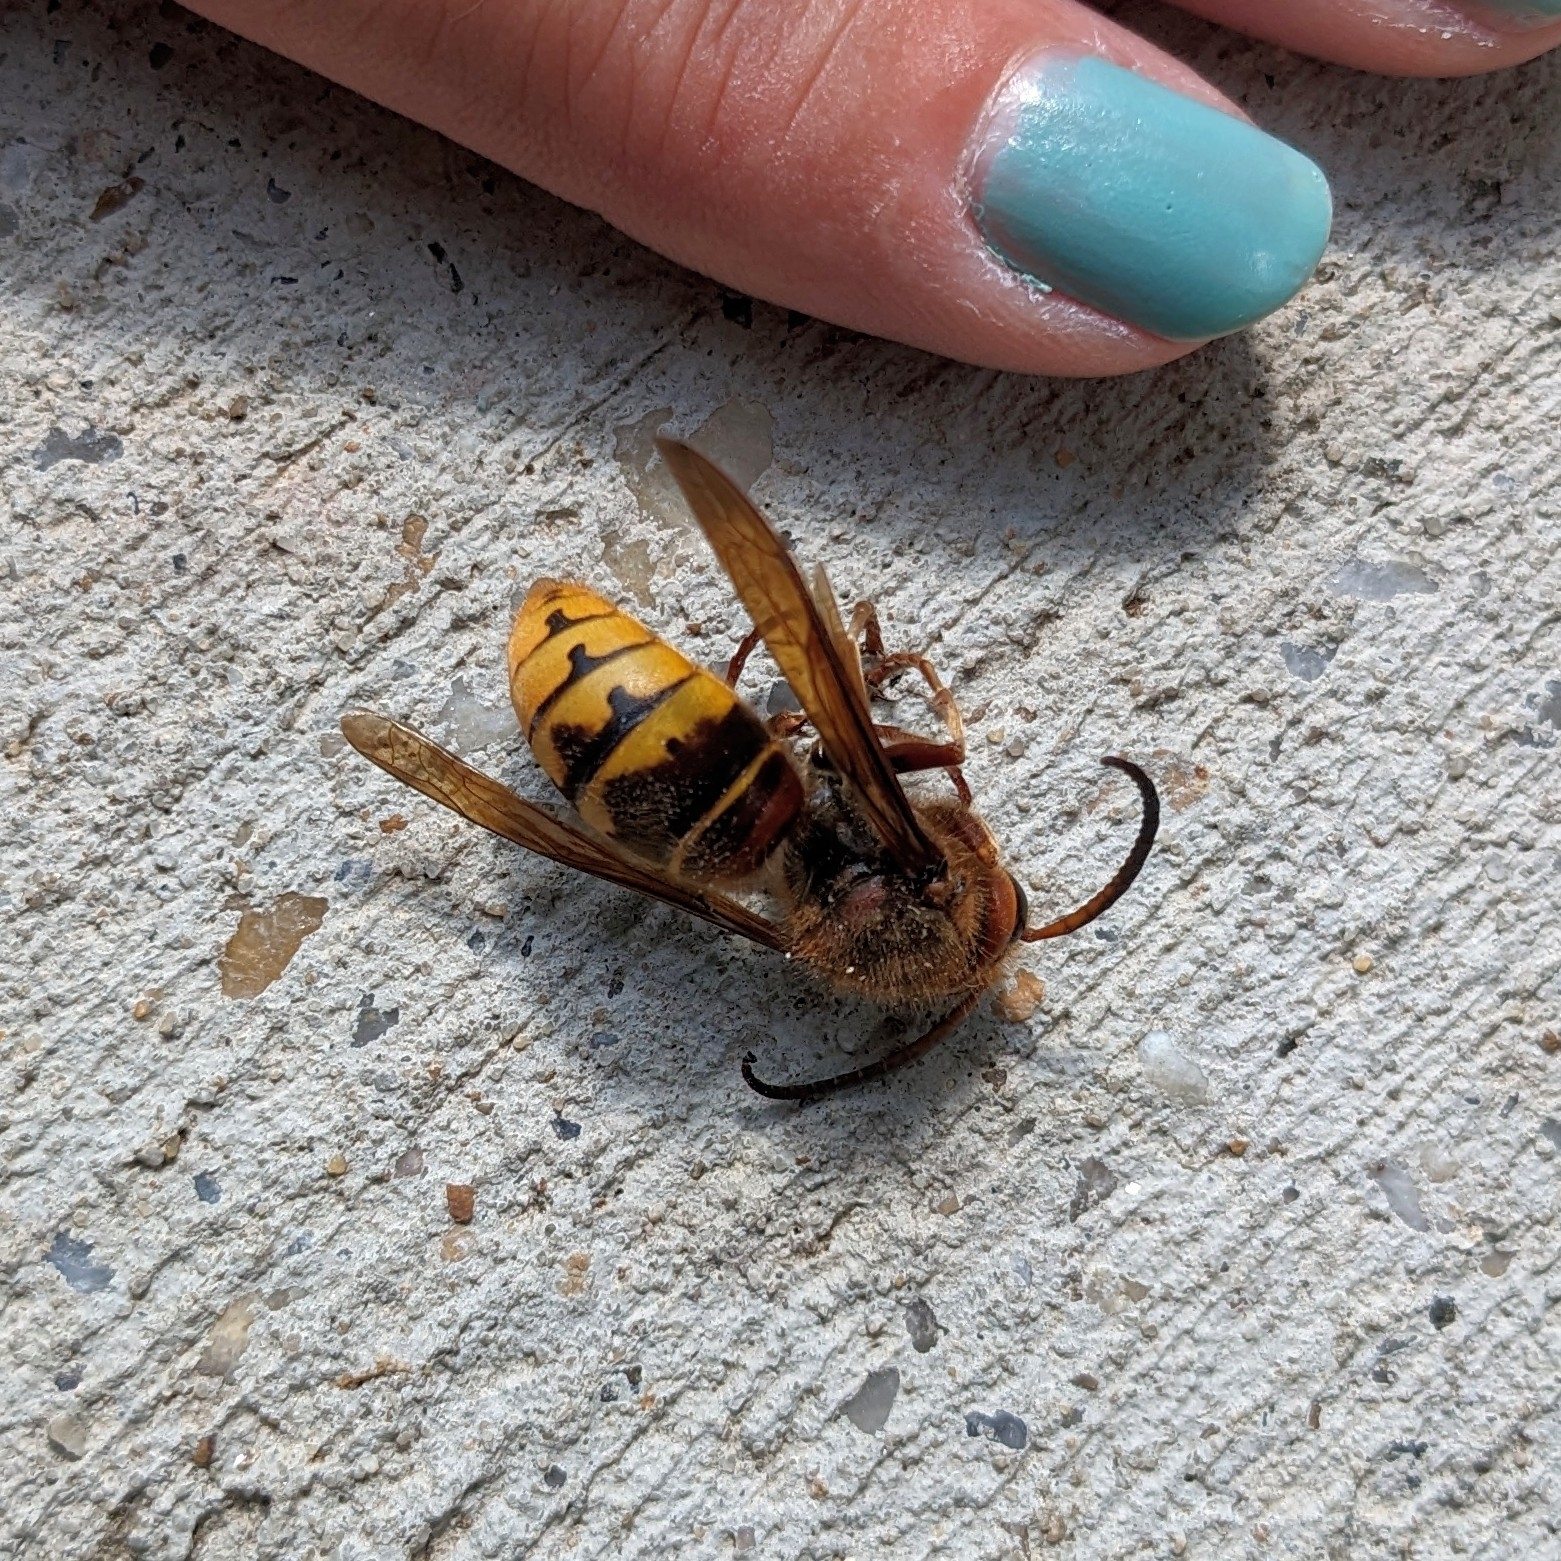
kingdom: Animalia
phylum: Arthropoda
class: Insecta
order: Hymenoptera
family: Vespidae
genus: Vespa
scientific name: Vespa crabro
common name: Hornet
